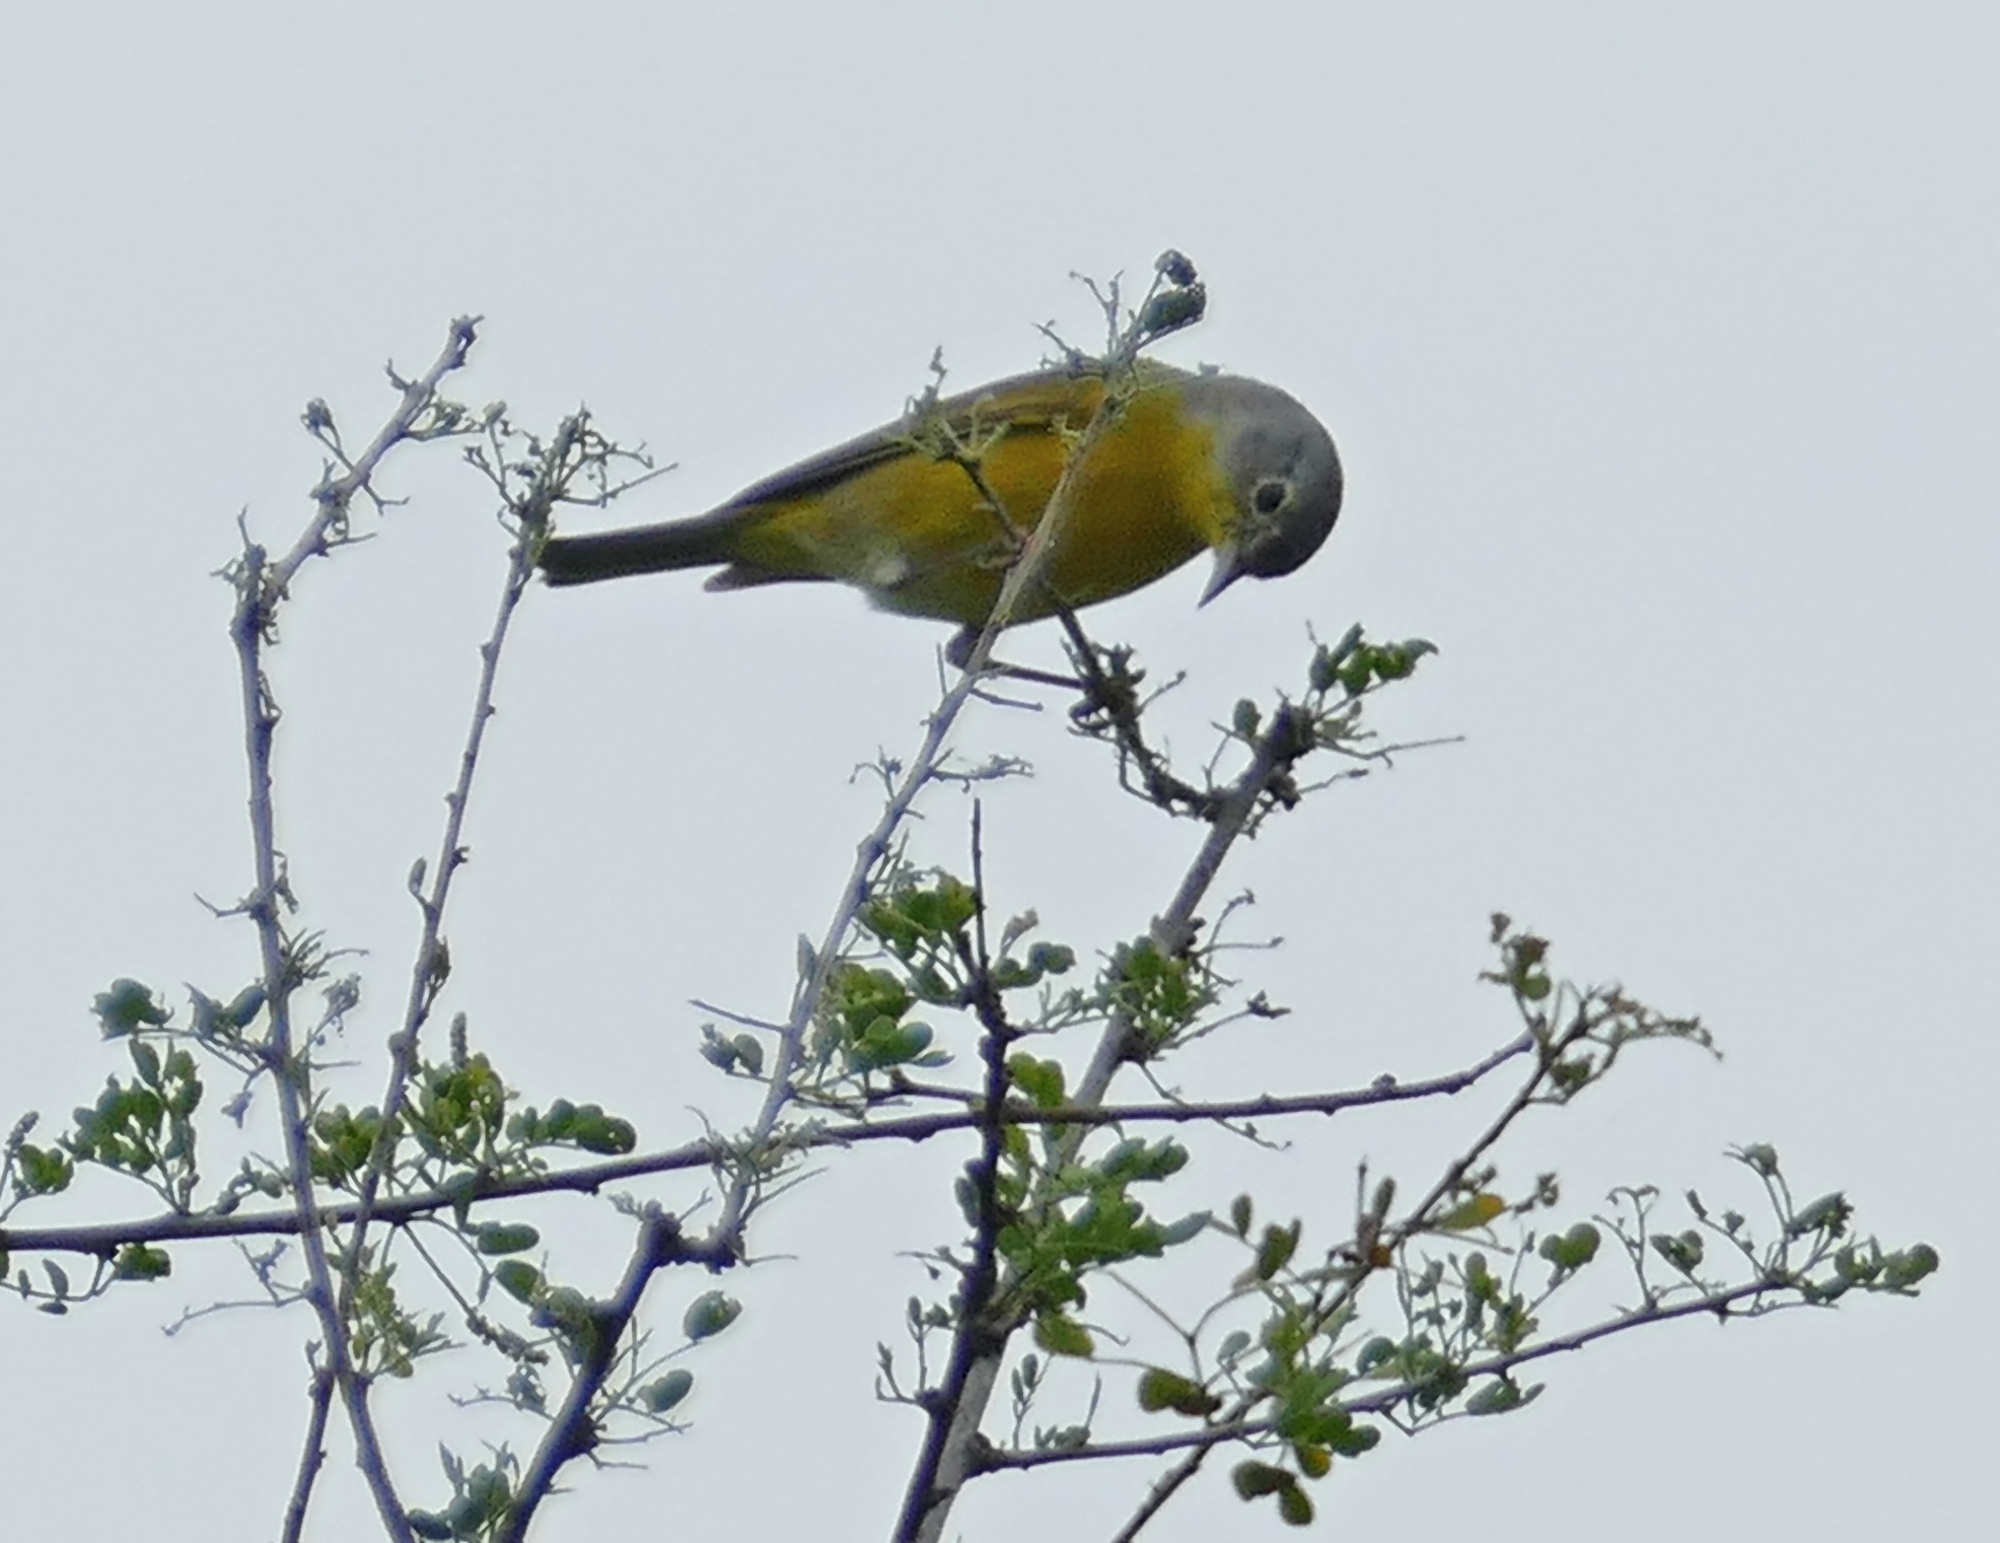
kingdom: Animalia
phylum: Chordata
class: Aves
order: Passeriformes
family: Parulidae
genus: Leiothlypis
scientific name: Leiothlypis ruficapilla
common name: Nashville warbler
